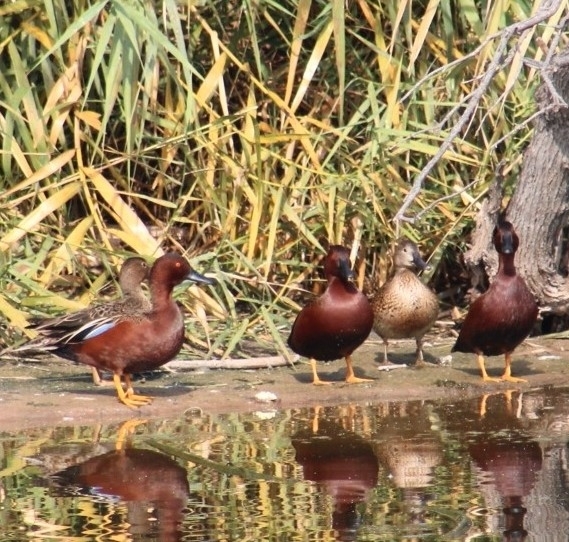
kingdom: Animalia
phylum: Chordata
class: Aves
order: Anseriformes
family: Anatidae
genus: Spatula
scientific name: Spatula cyanoptera
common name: Cinnamon teal
